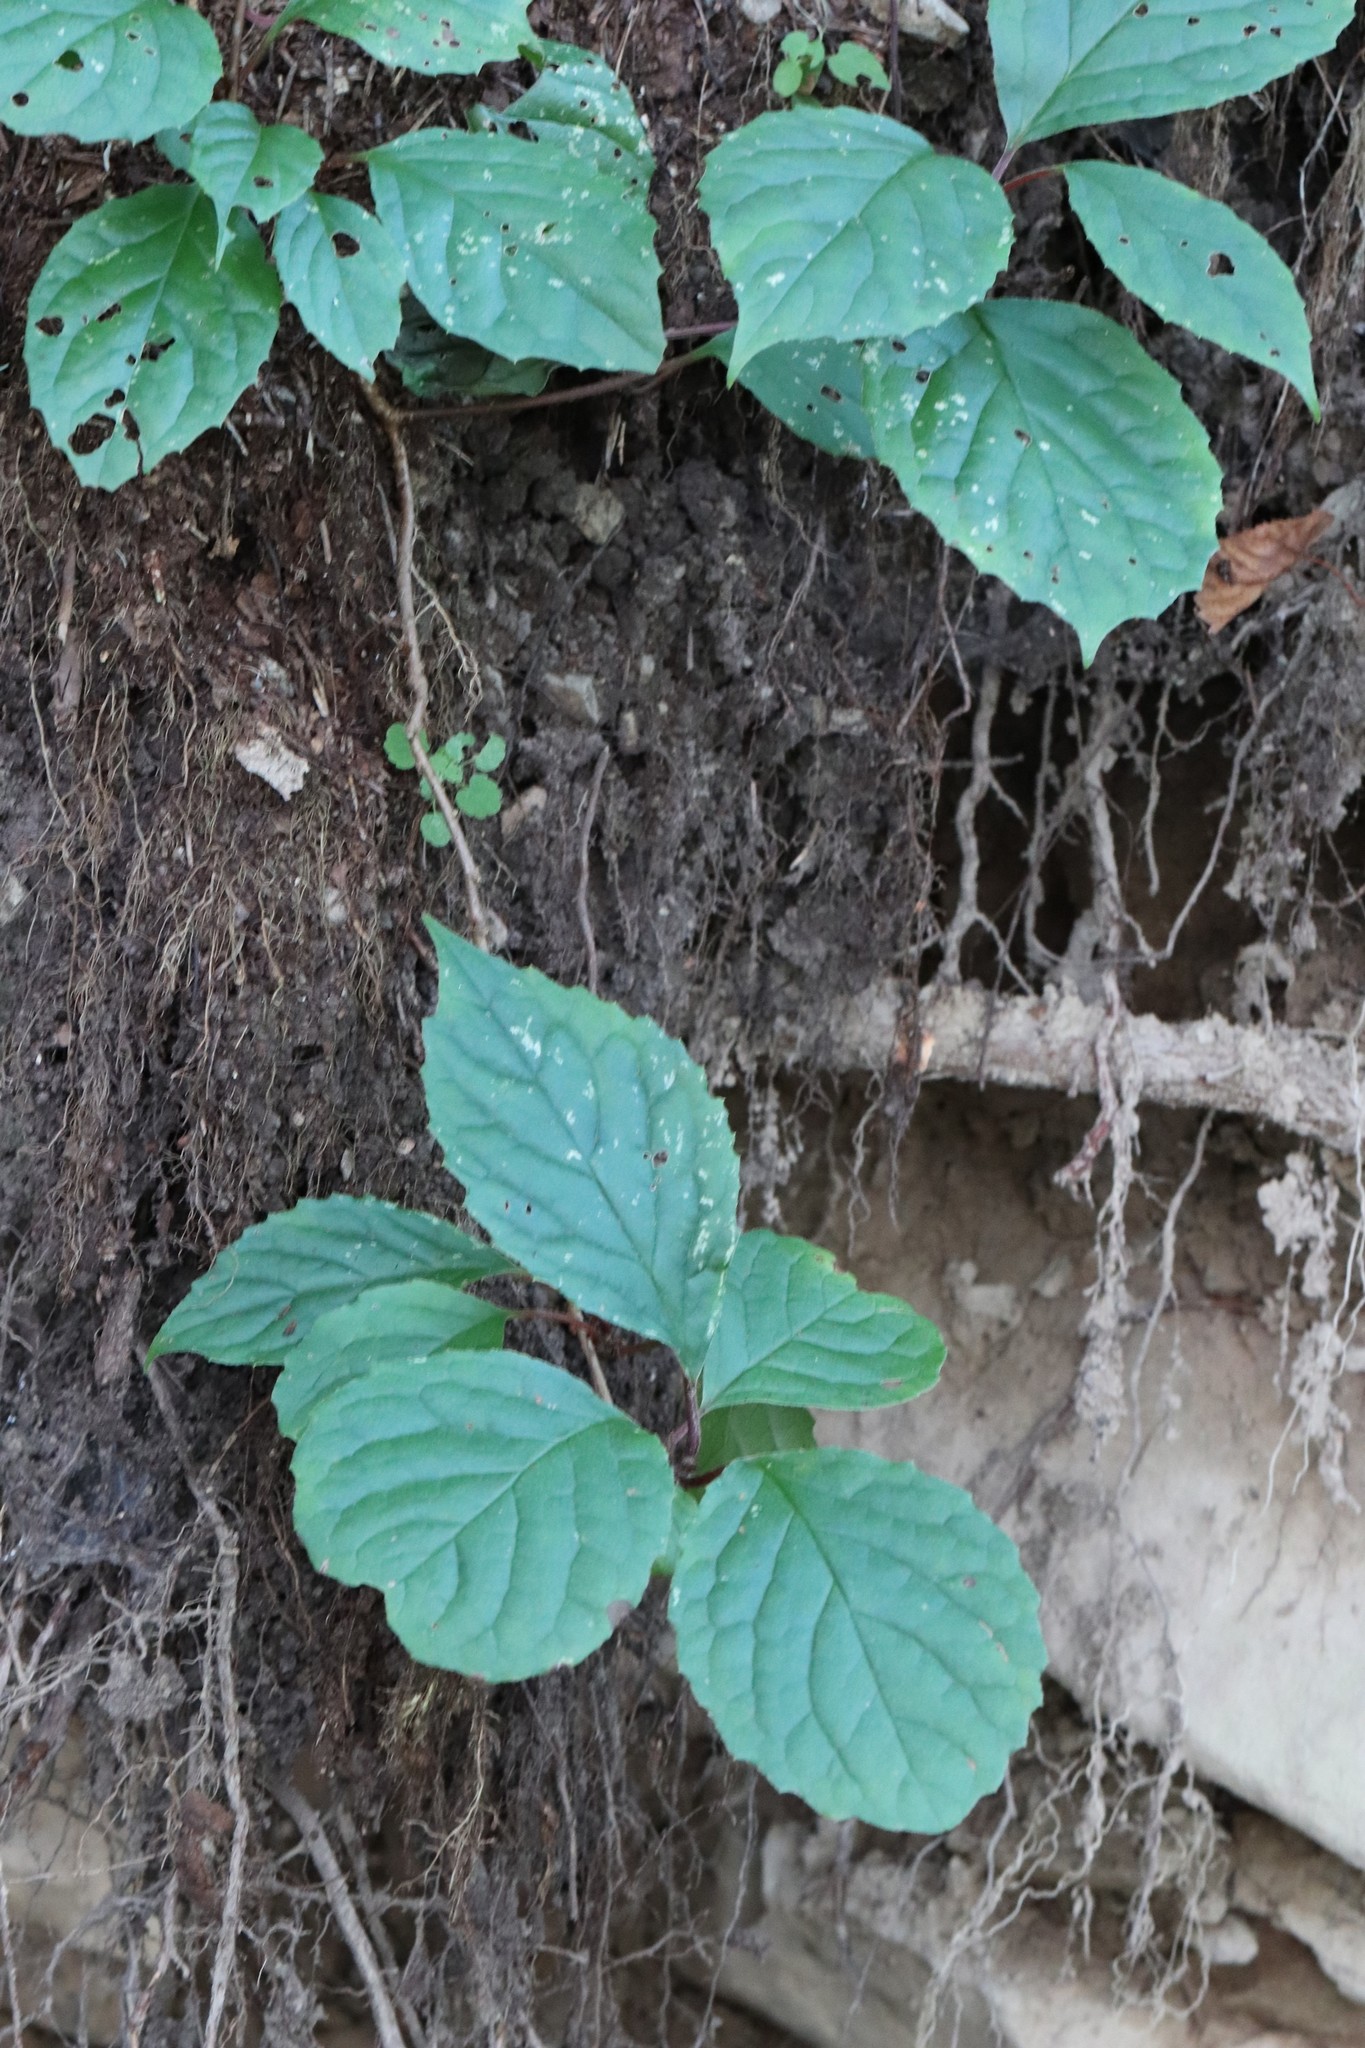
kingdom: Plantae
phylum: Tracheophyta
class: Magnoliopsida
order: Austrobaileyales
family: Schisandraceae
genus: Schisandra
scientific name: Schisandra chinensis
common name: Magnolia-vine
